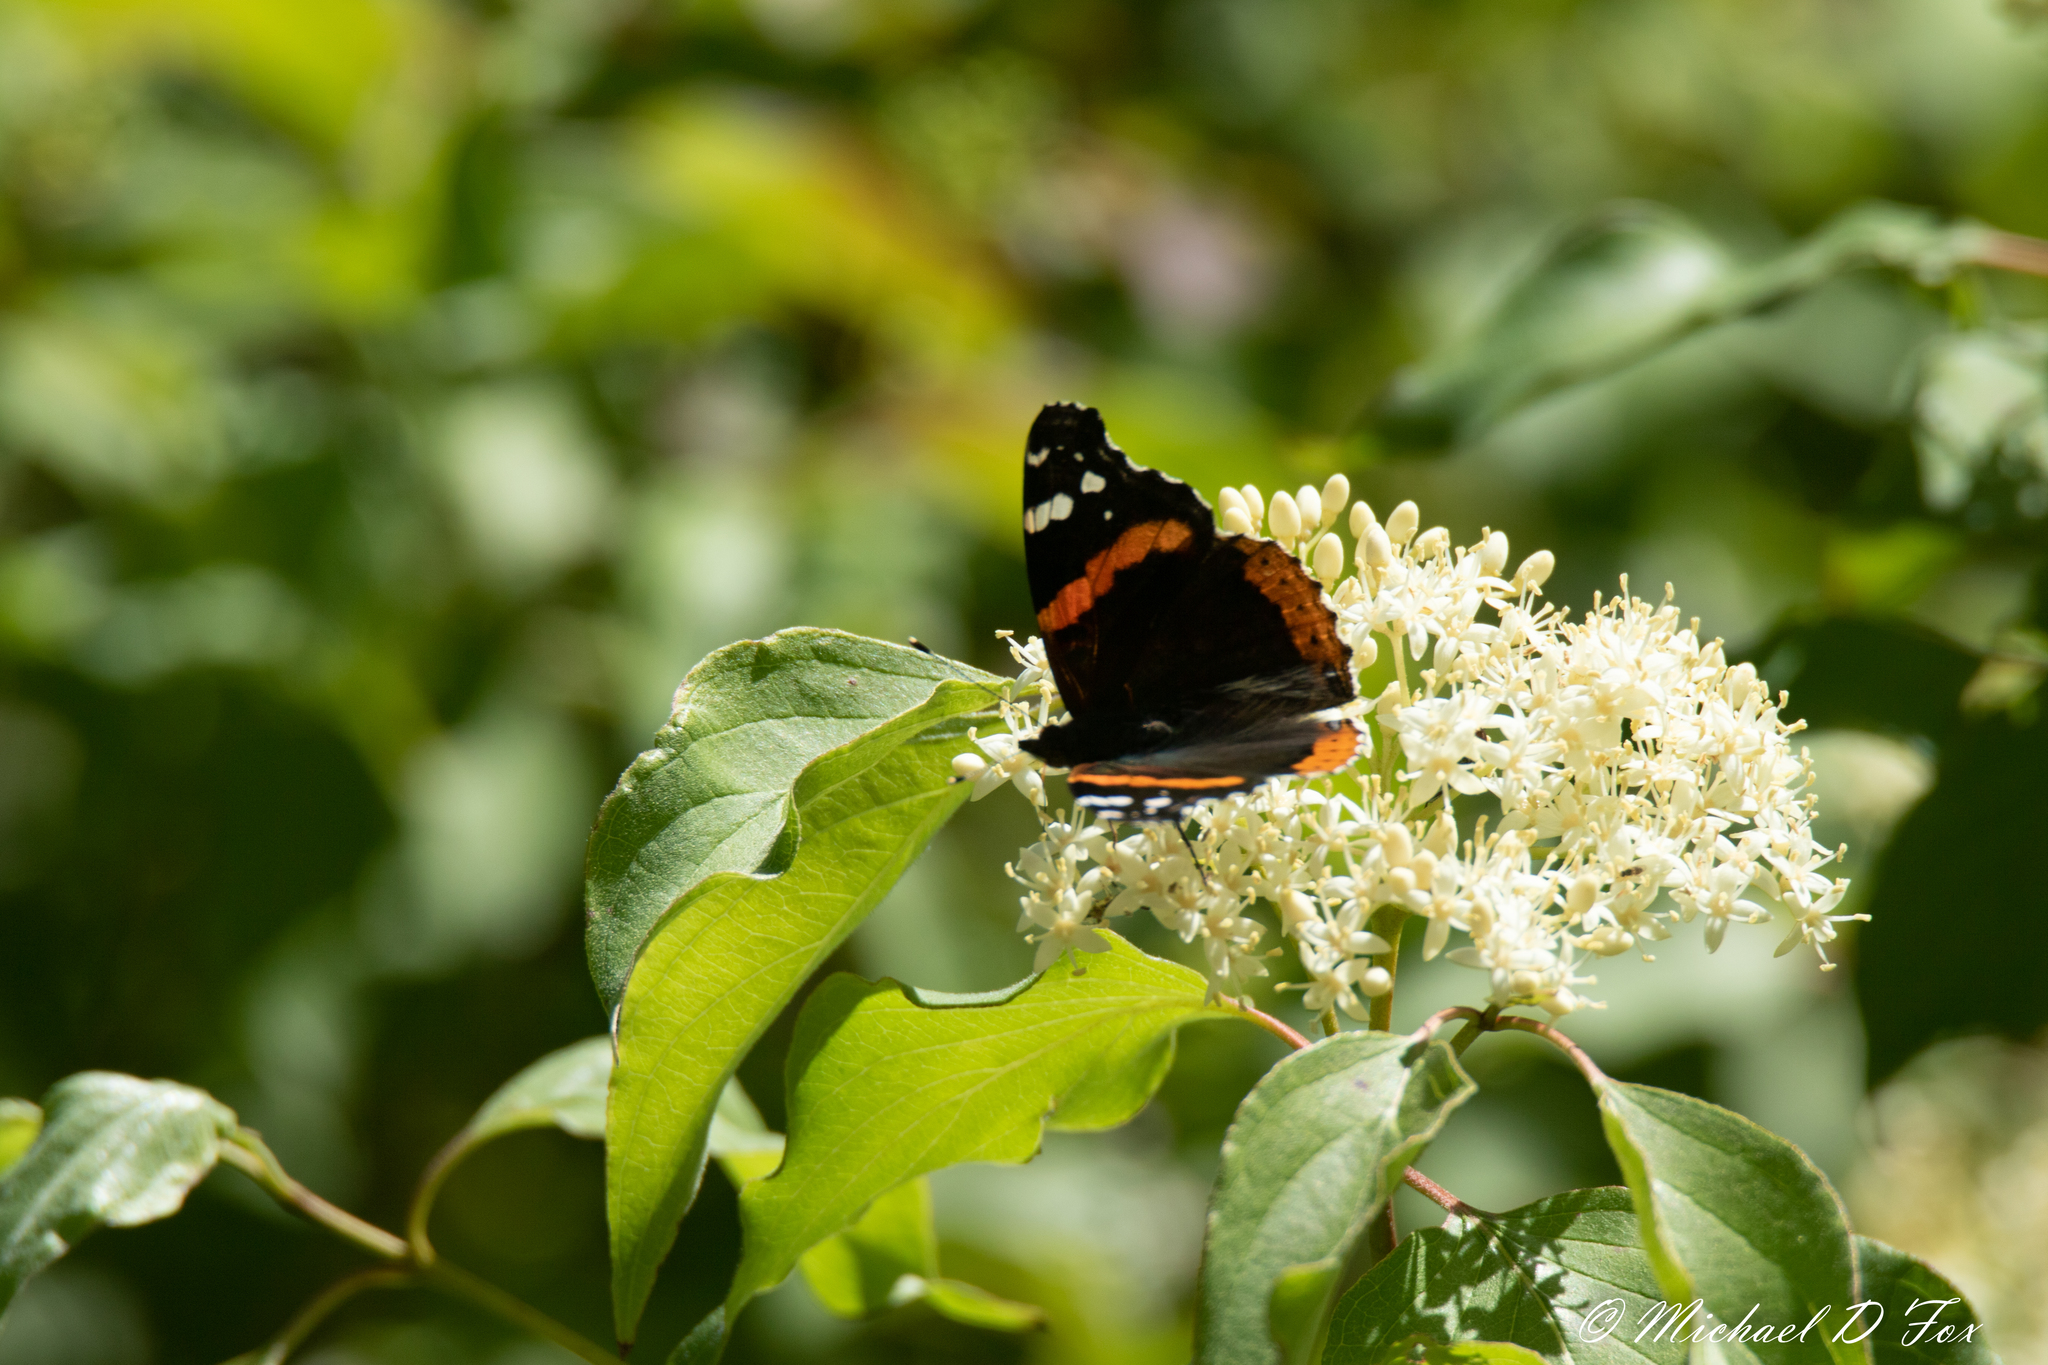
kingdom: Animalia
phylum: Arthropoda
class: Insecta
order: Lepidoptera
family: Nymphalidae
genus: Vanessa
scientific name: Vanessa atalanta
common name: Red admiral
